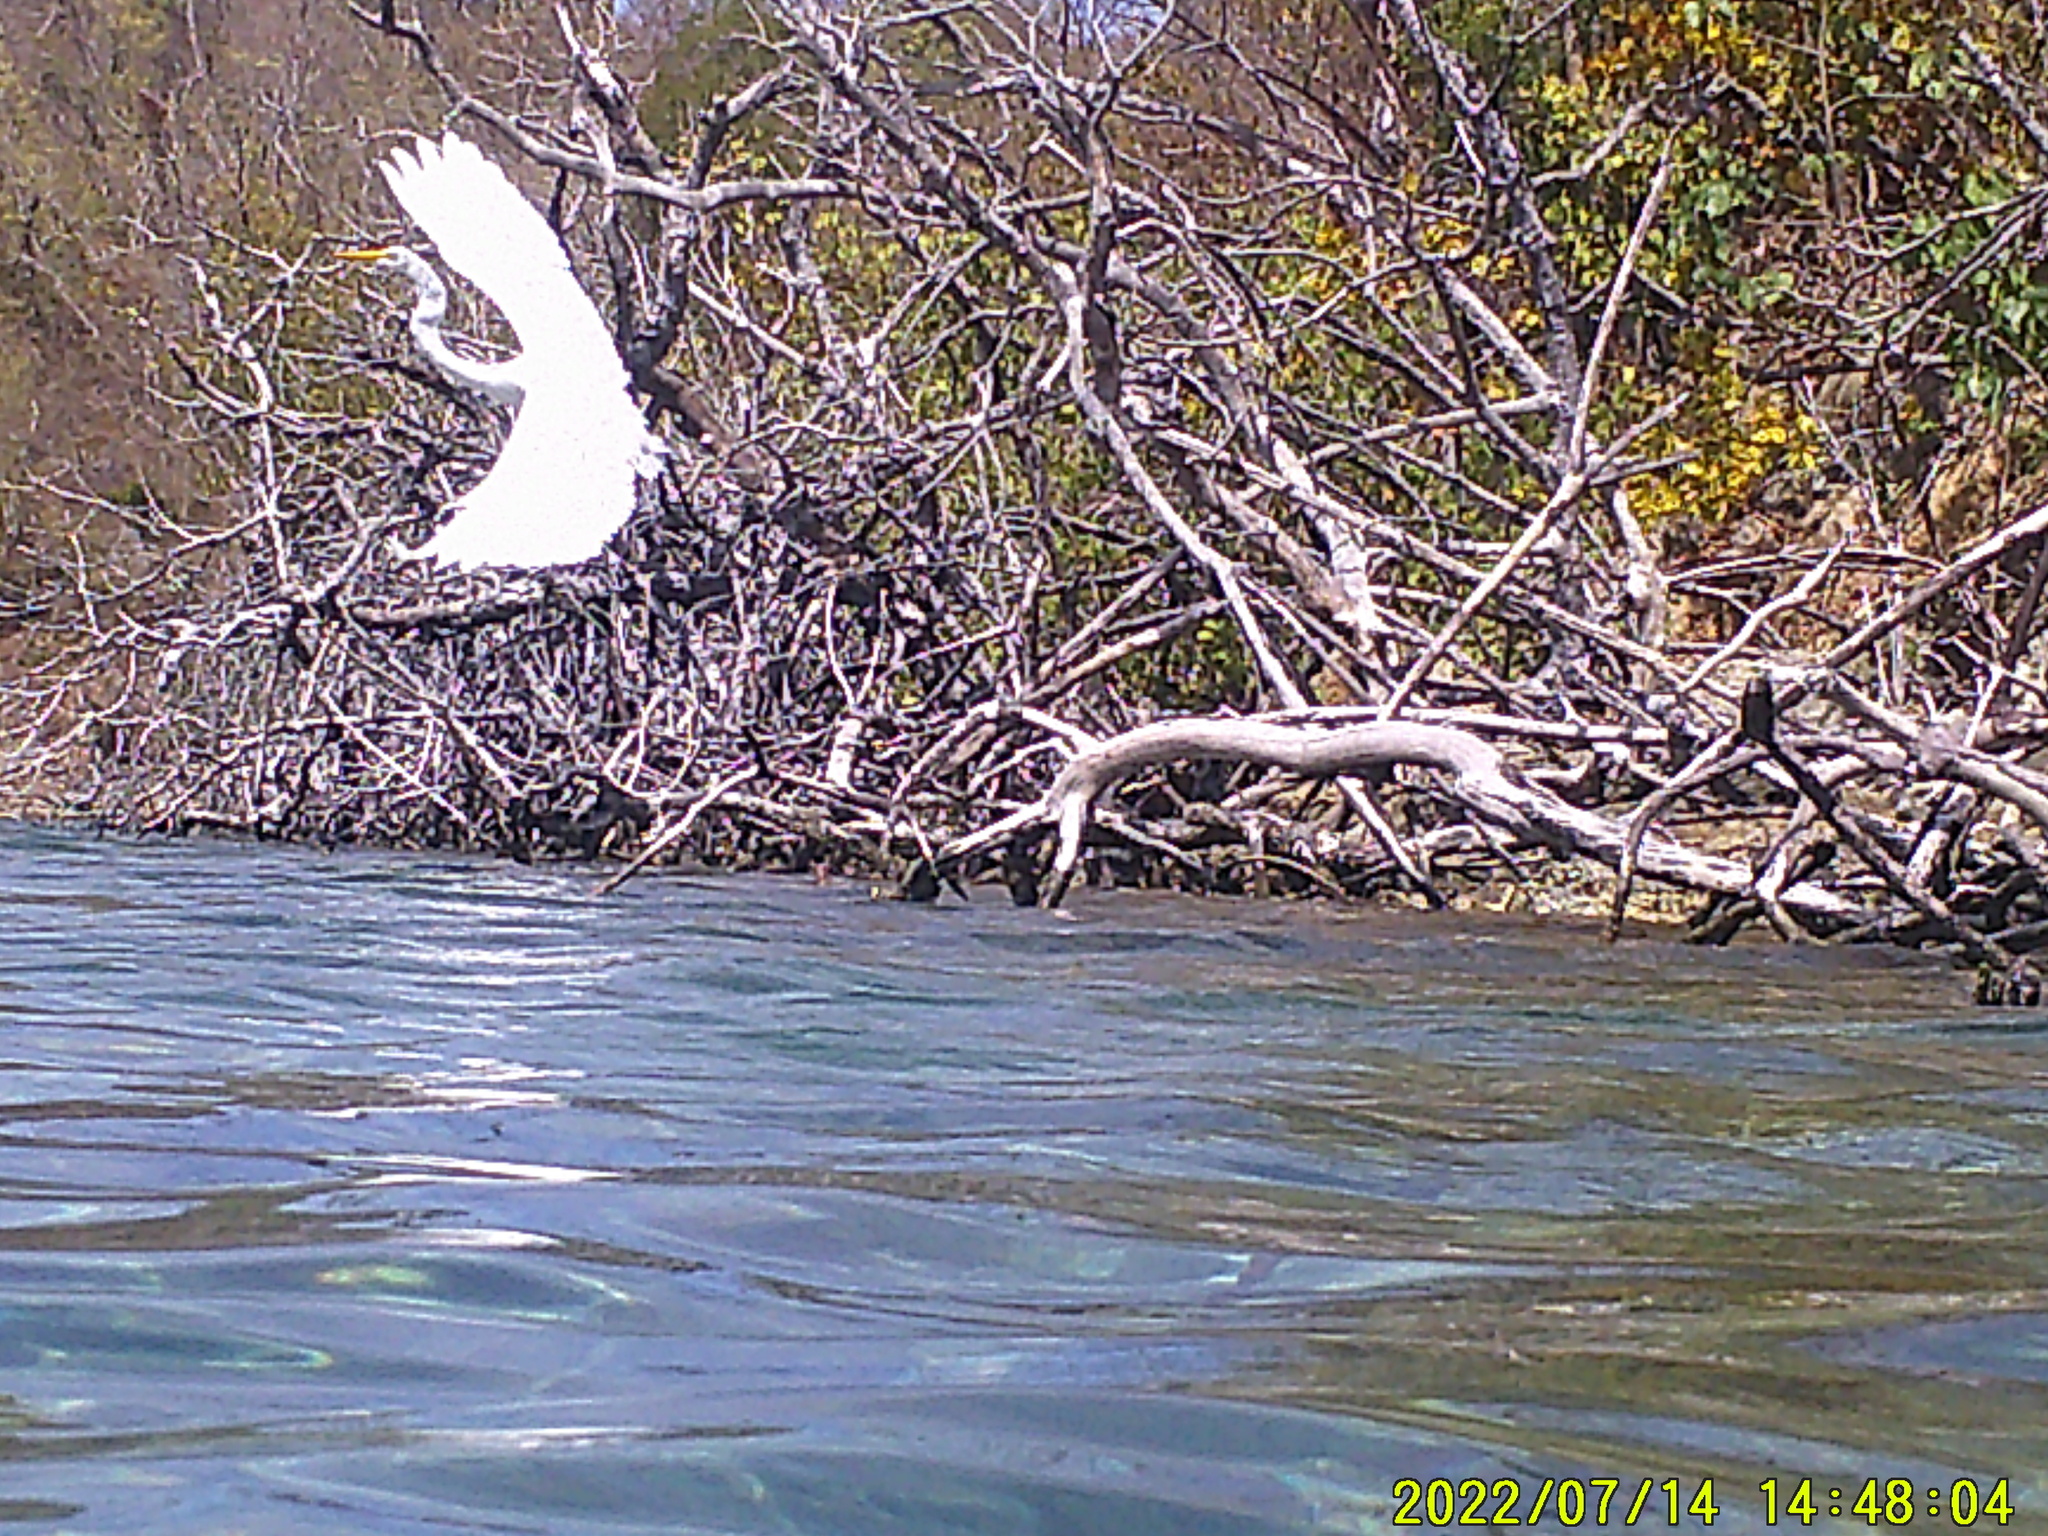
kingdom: Animalia
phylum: Chordata
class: Aves
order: Pelecaniformes
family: Ardeidae
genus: Ardea
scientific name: Ardea alba
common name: Great egret
